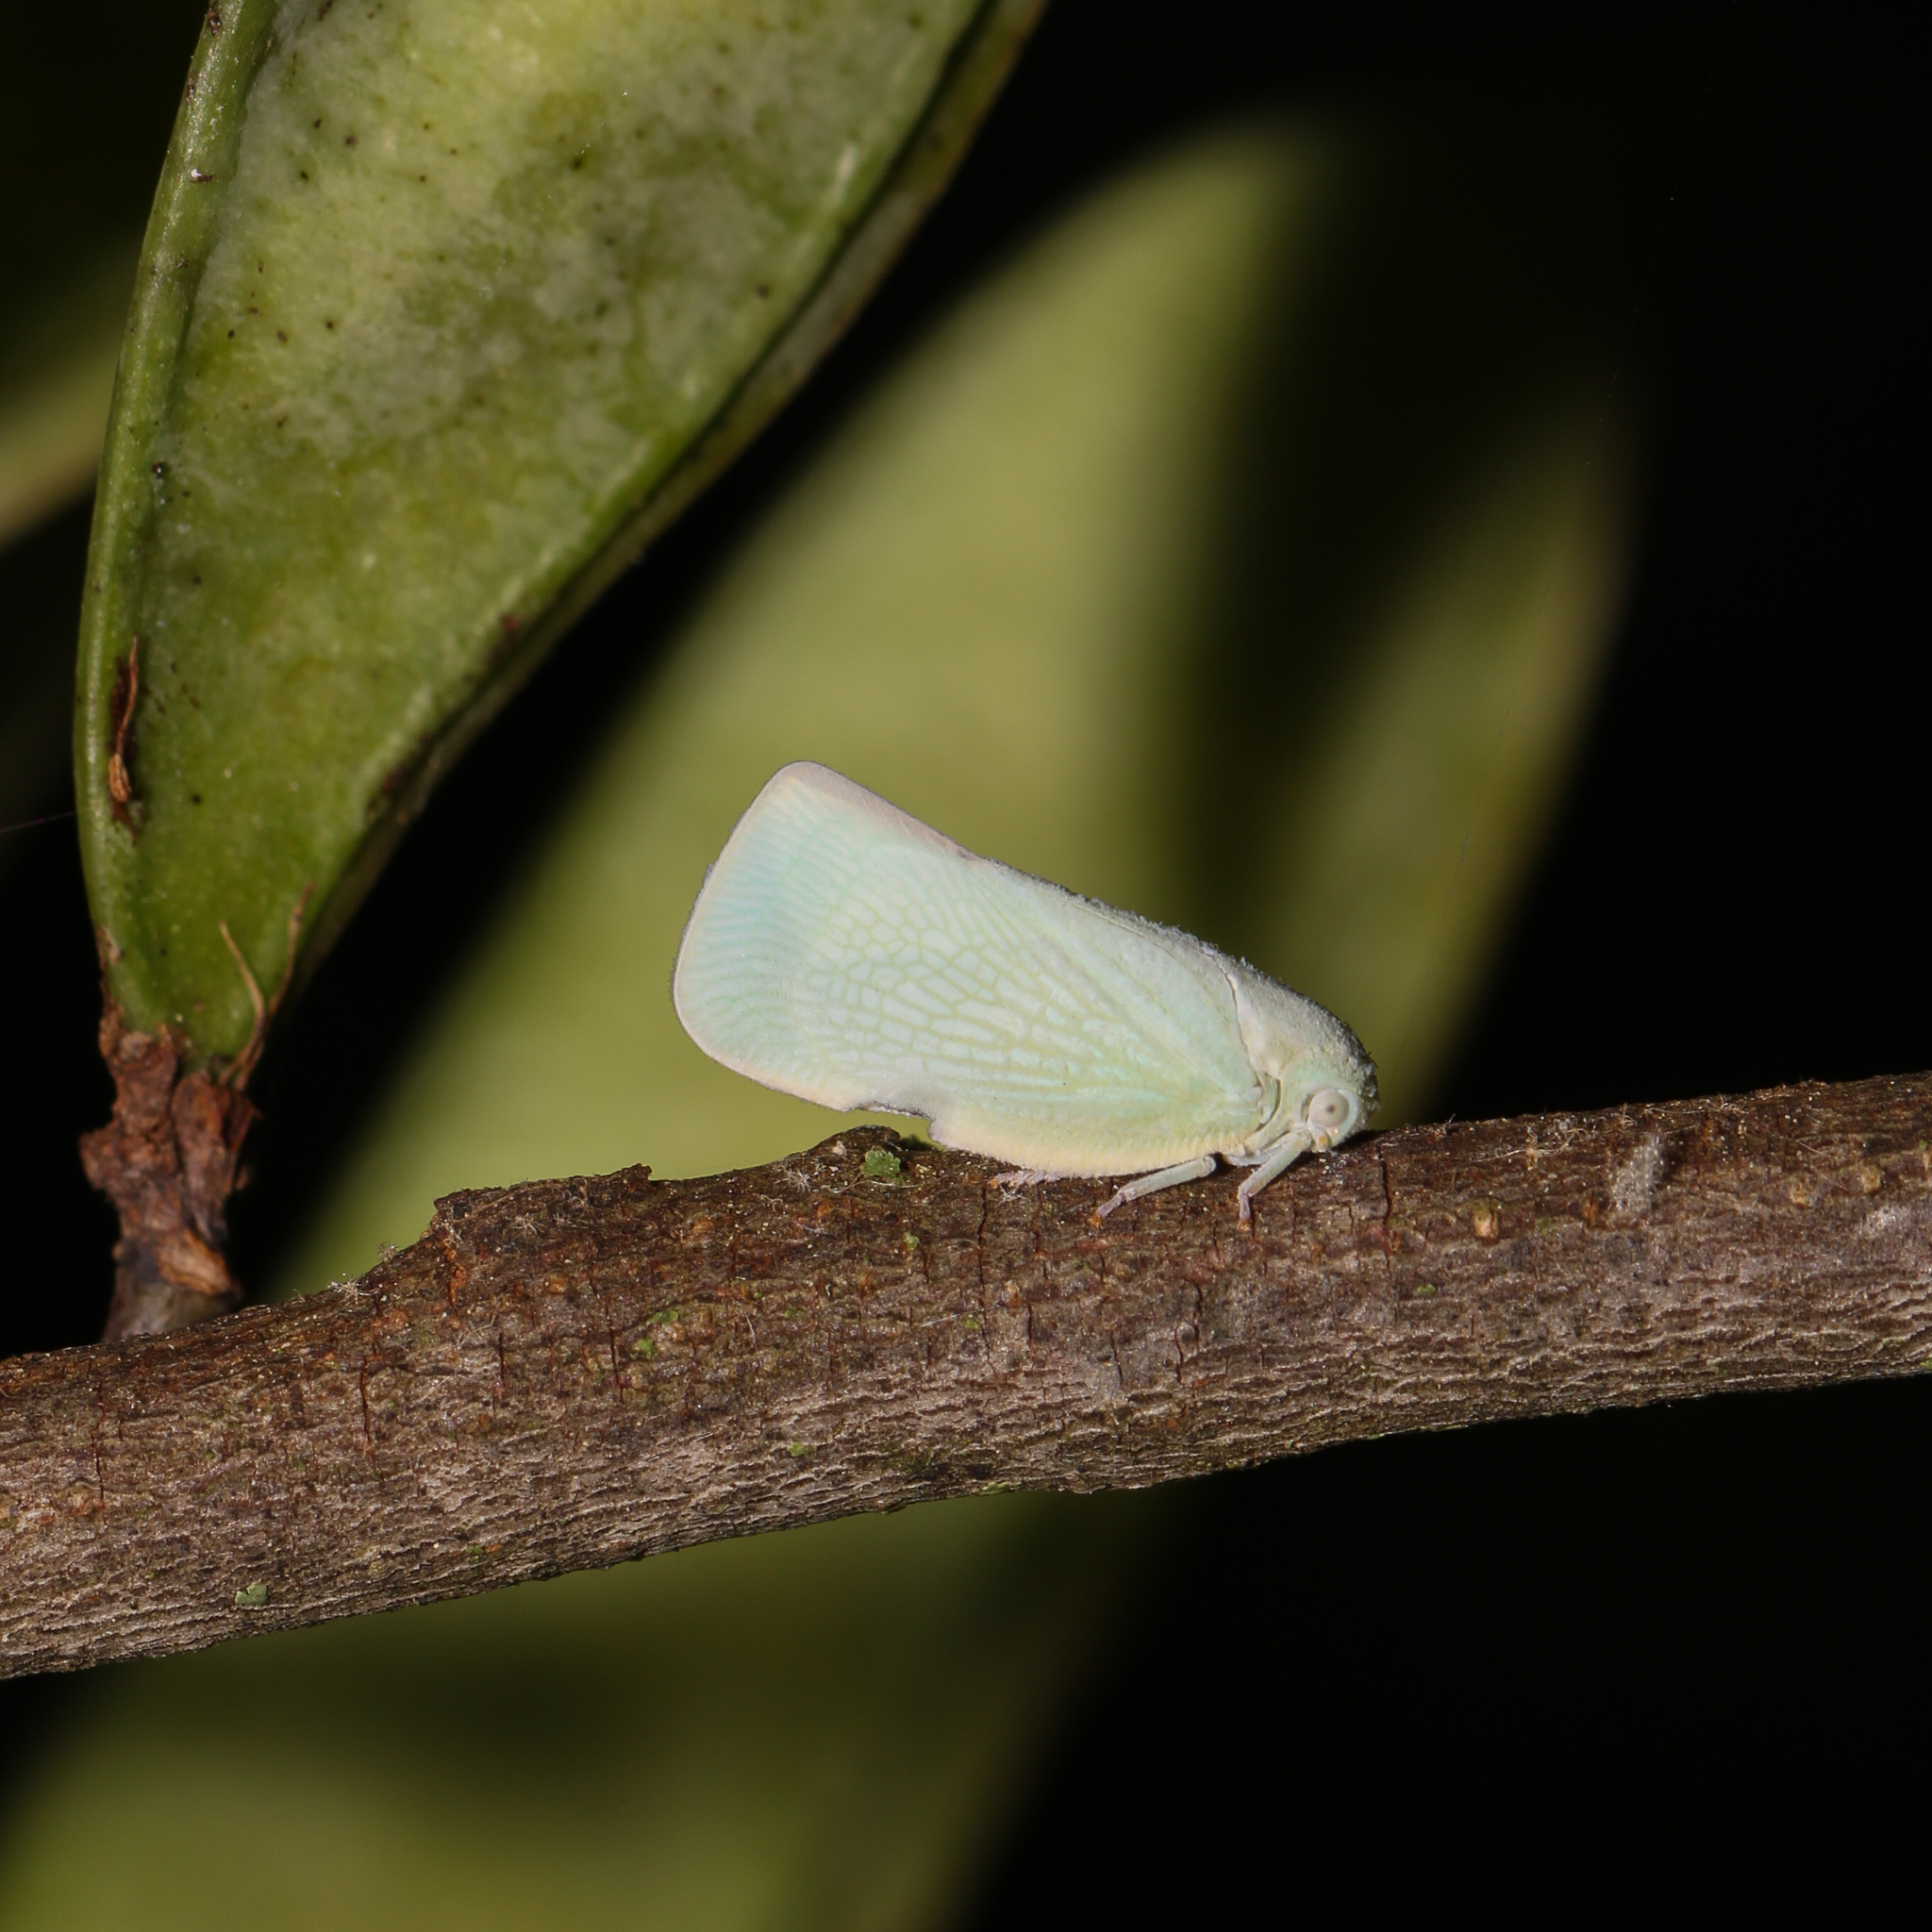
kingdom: Animalia
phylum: Arthropoda
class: Insecta
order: Hemiptera
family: Flatidae
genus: Flatormenis
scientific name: Flatormenis proxima
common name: Northern flatid planthopper
